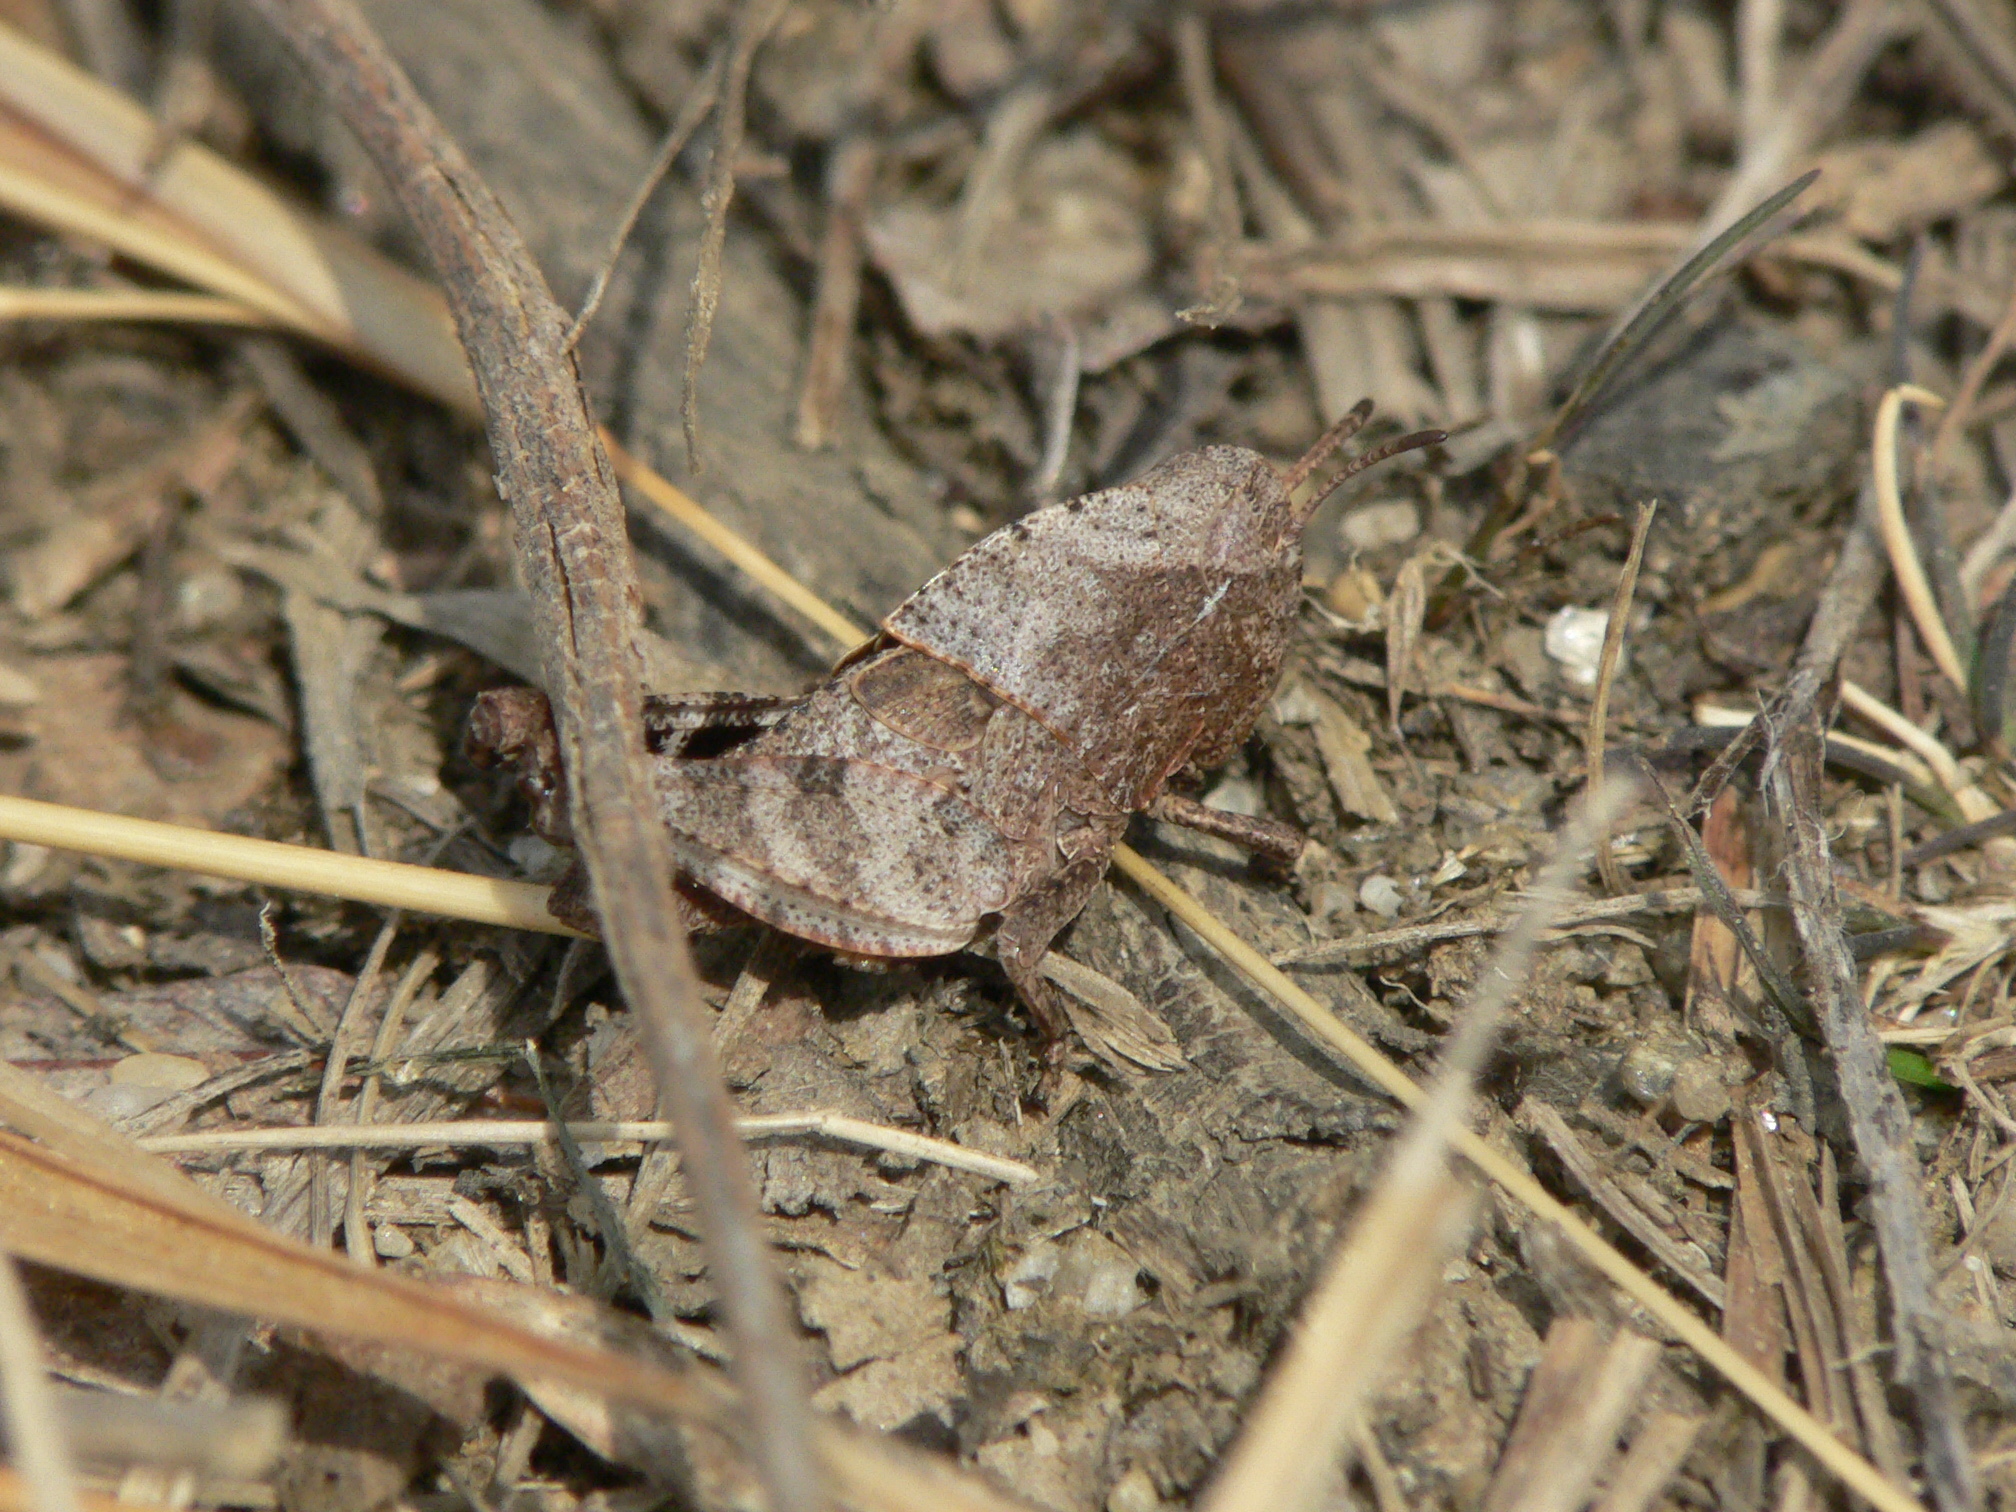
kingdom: Animalia
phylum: Arthropoda
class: Insecta
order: Orthoptera
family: Acrididae
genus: Arphia
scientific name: Arphia sulphurea
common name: Spring yellow-winged locust
